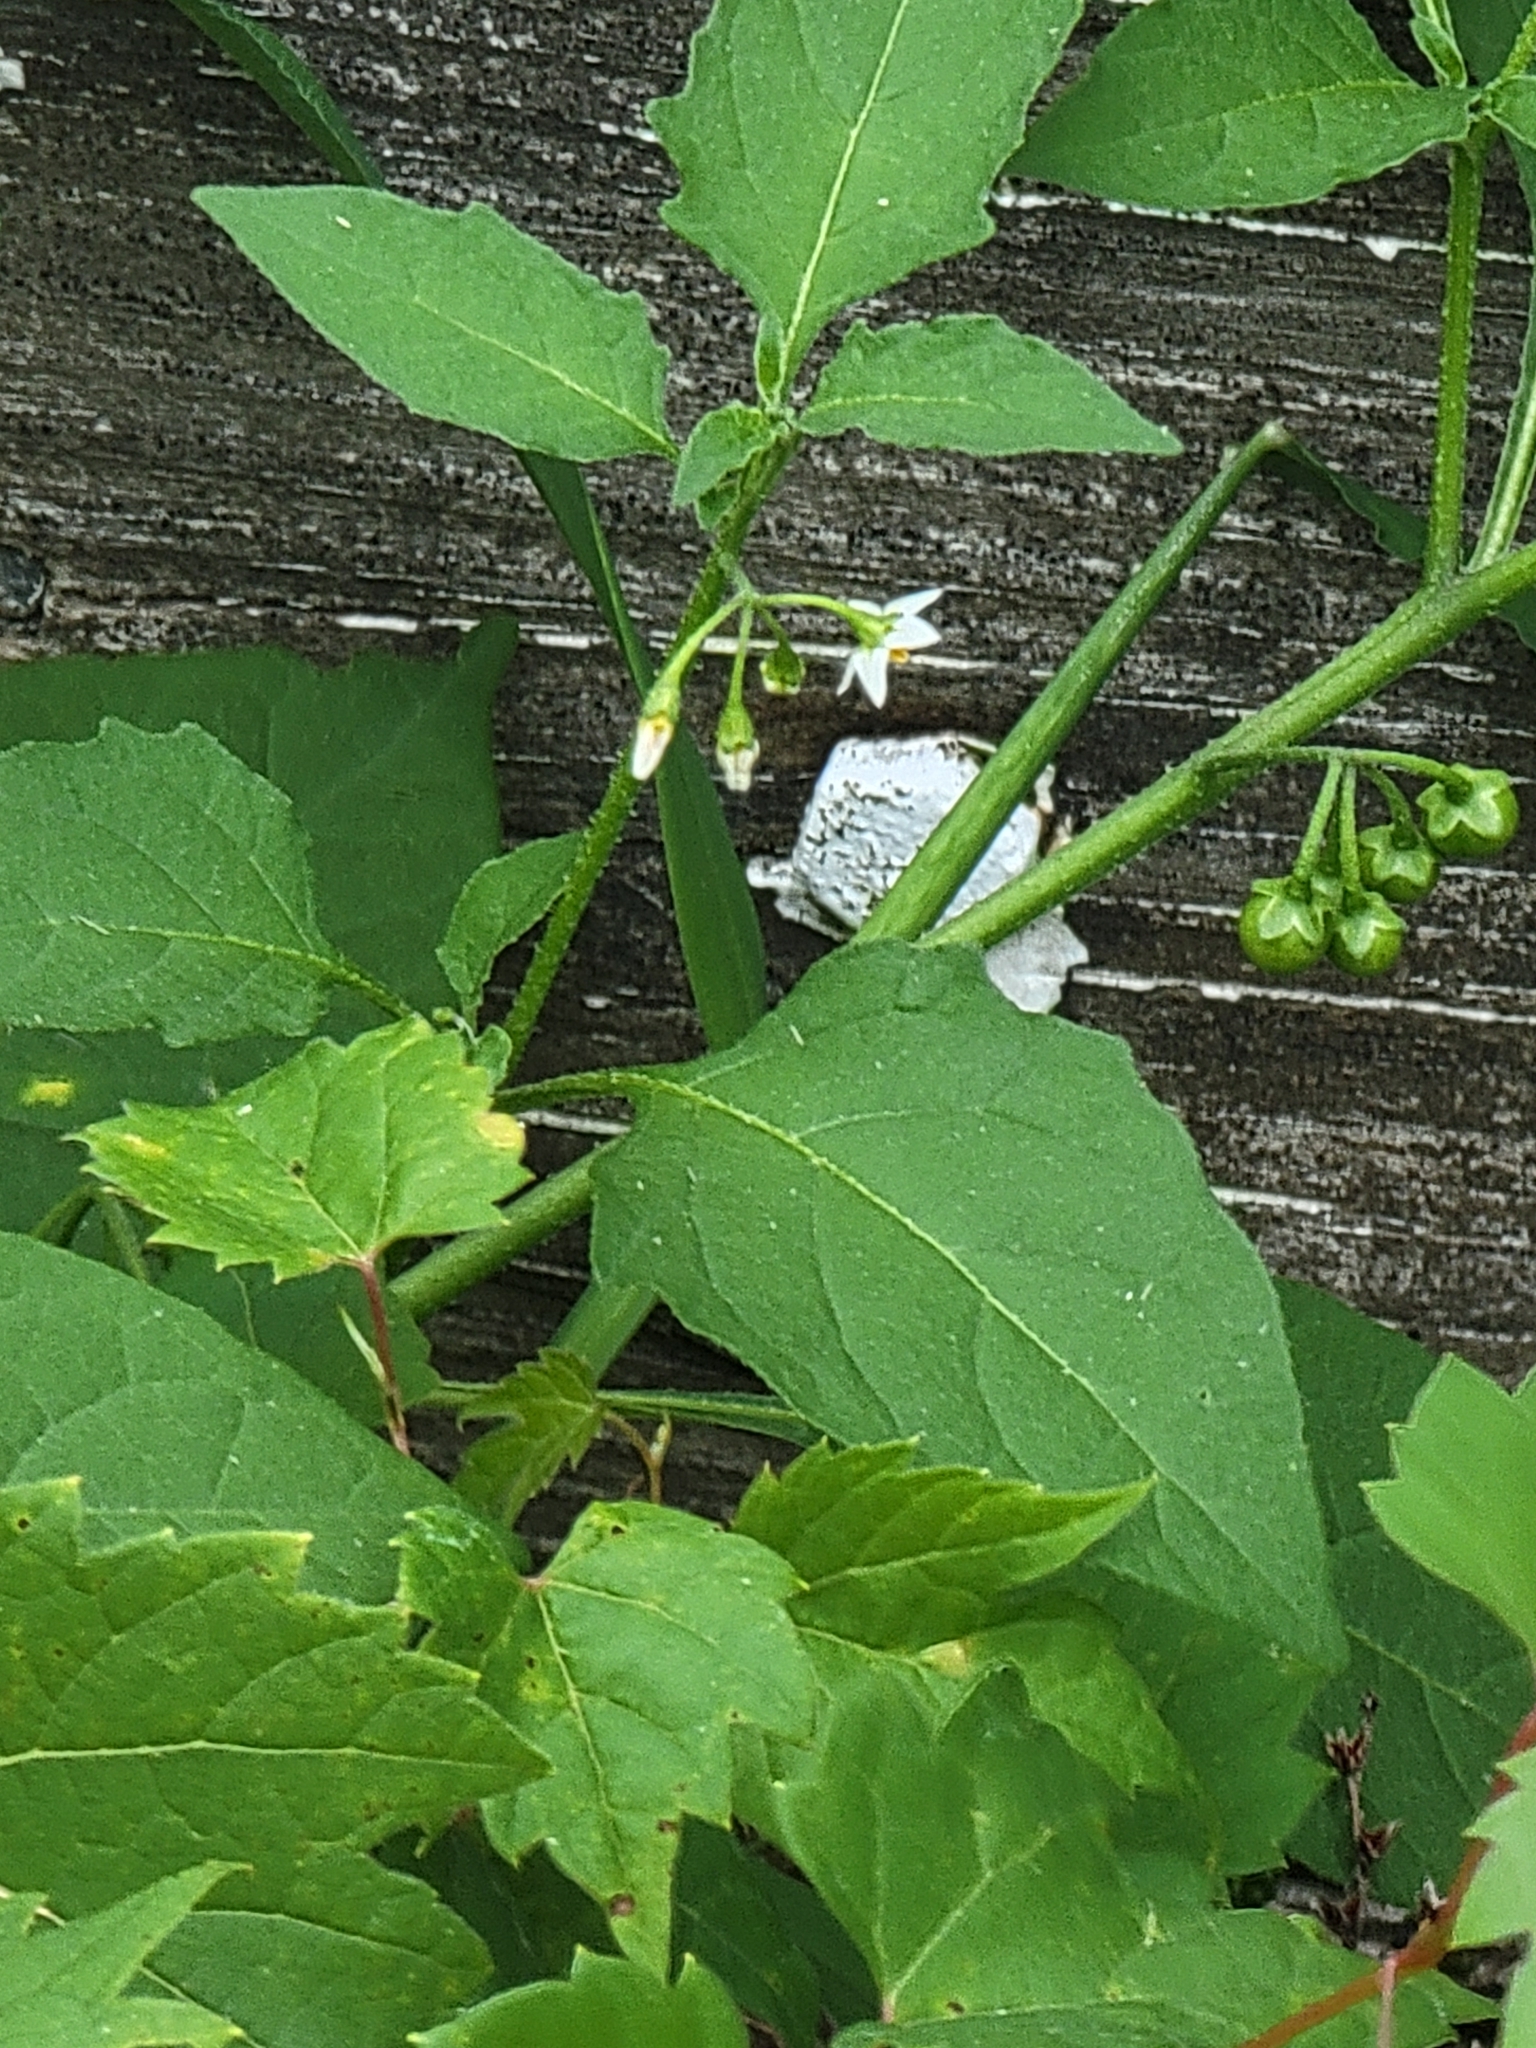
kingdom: Plantae
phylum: Tracheophyta
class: Magnoliopsida
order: Solanales
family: Solanaceae
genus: Solanum
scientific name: Solanum emulans
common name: Eastern black nightshade
